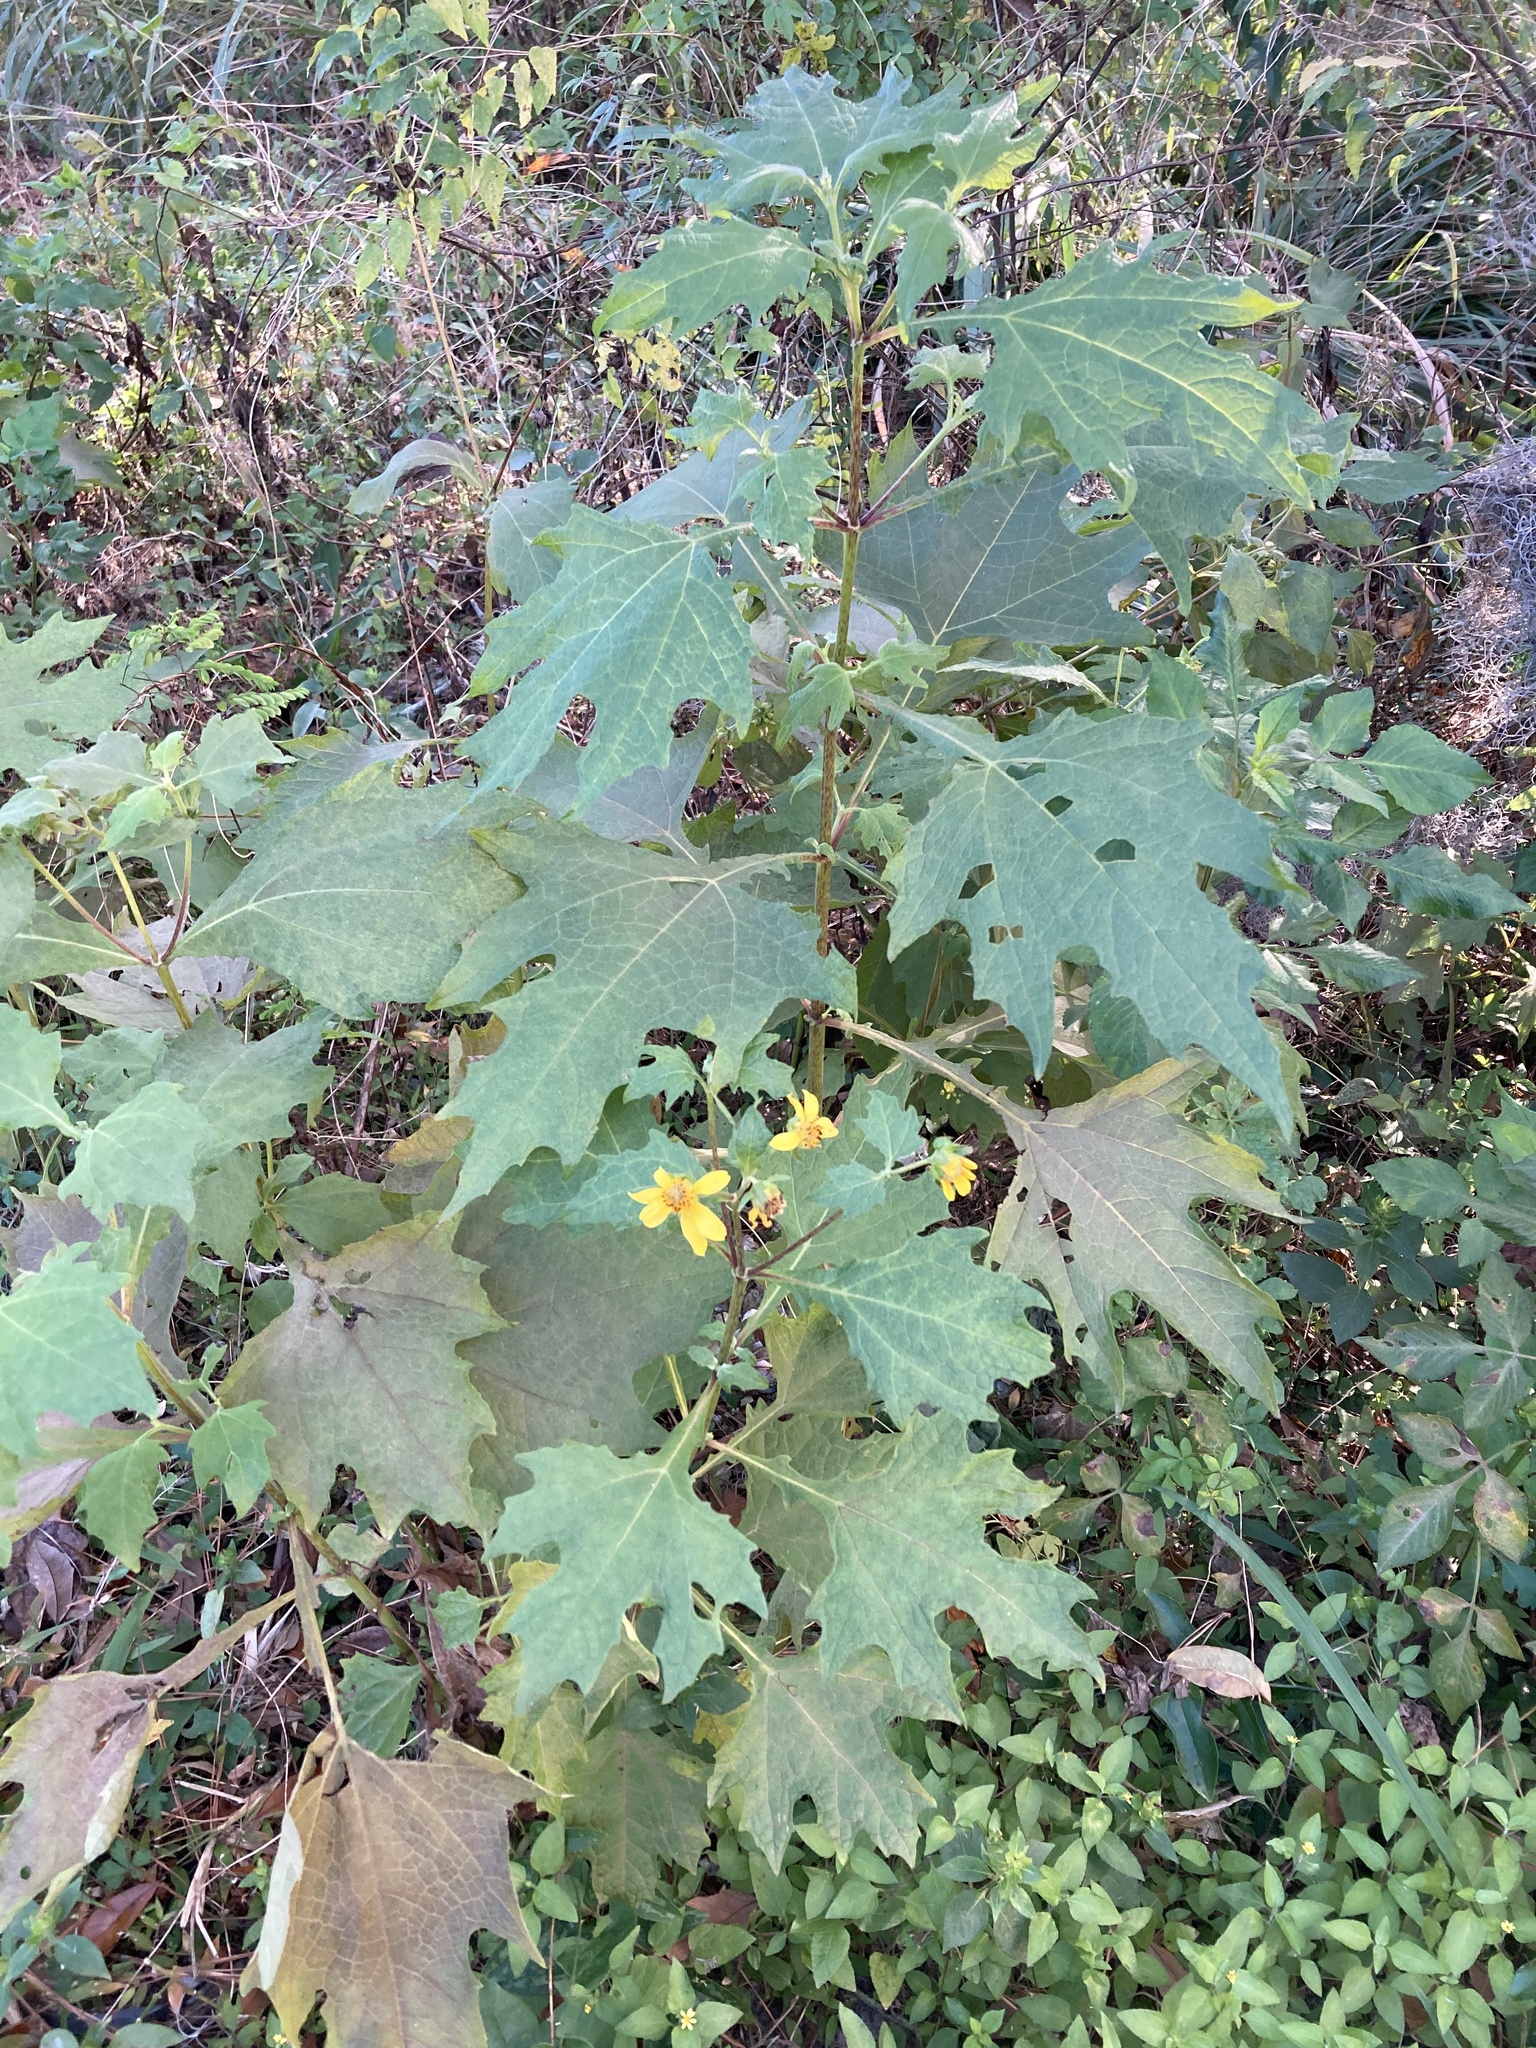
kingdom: Plantae
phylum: Tracheophyta
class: Magnoliopsida
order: Asterales
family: Asteraceae
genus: Smallanthus
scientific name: Smallanthus uvedalia
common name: Bear's-foot
